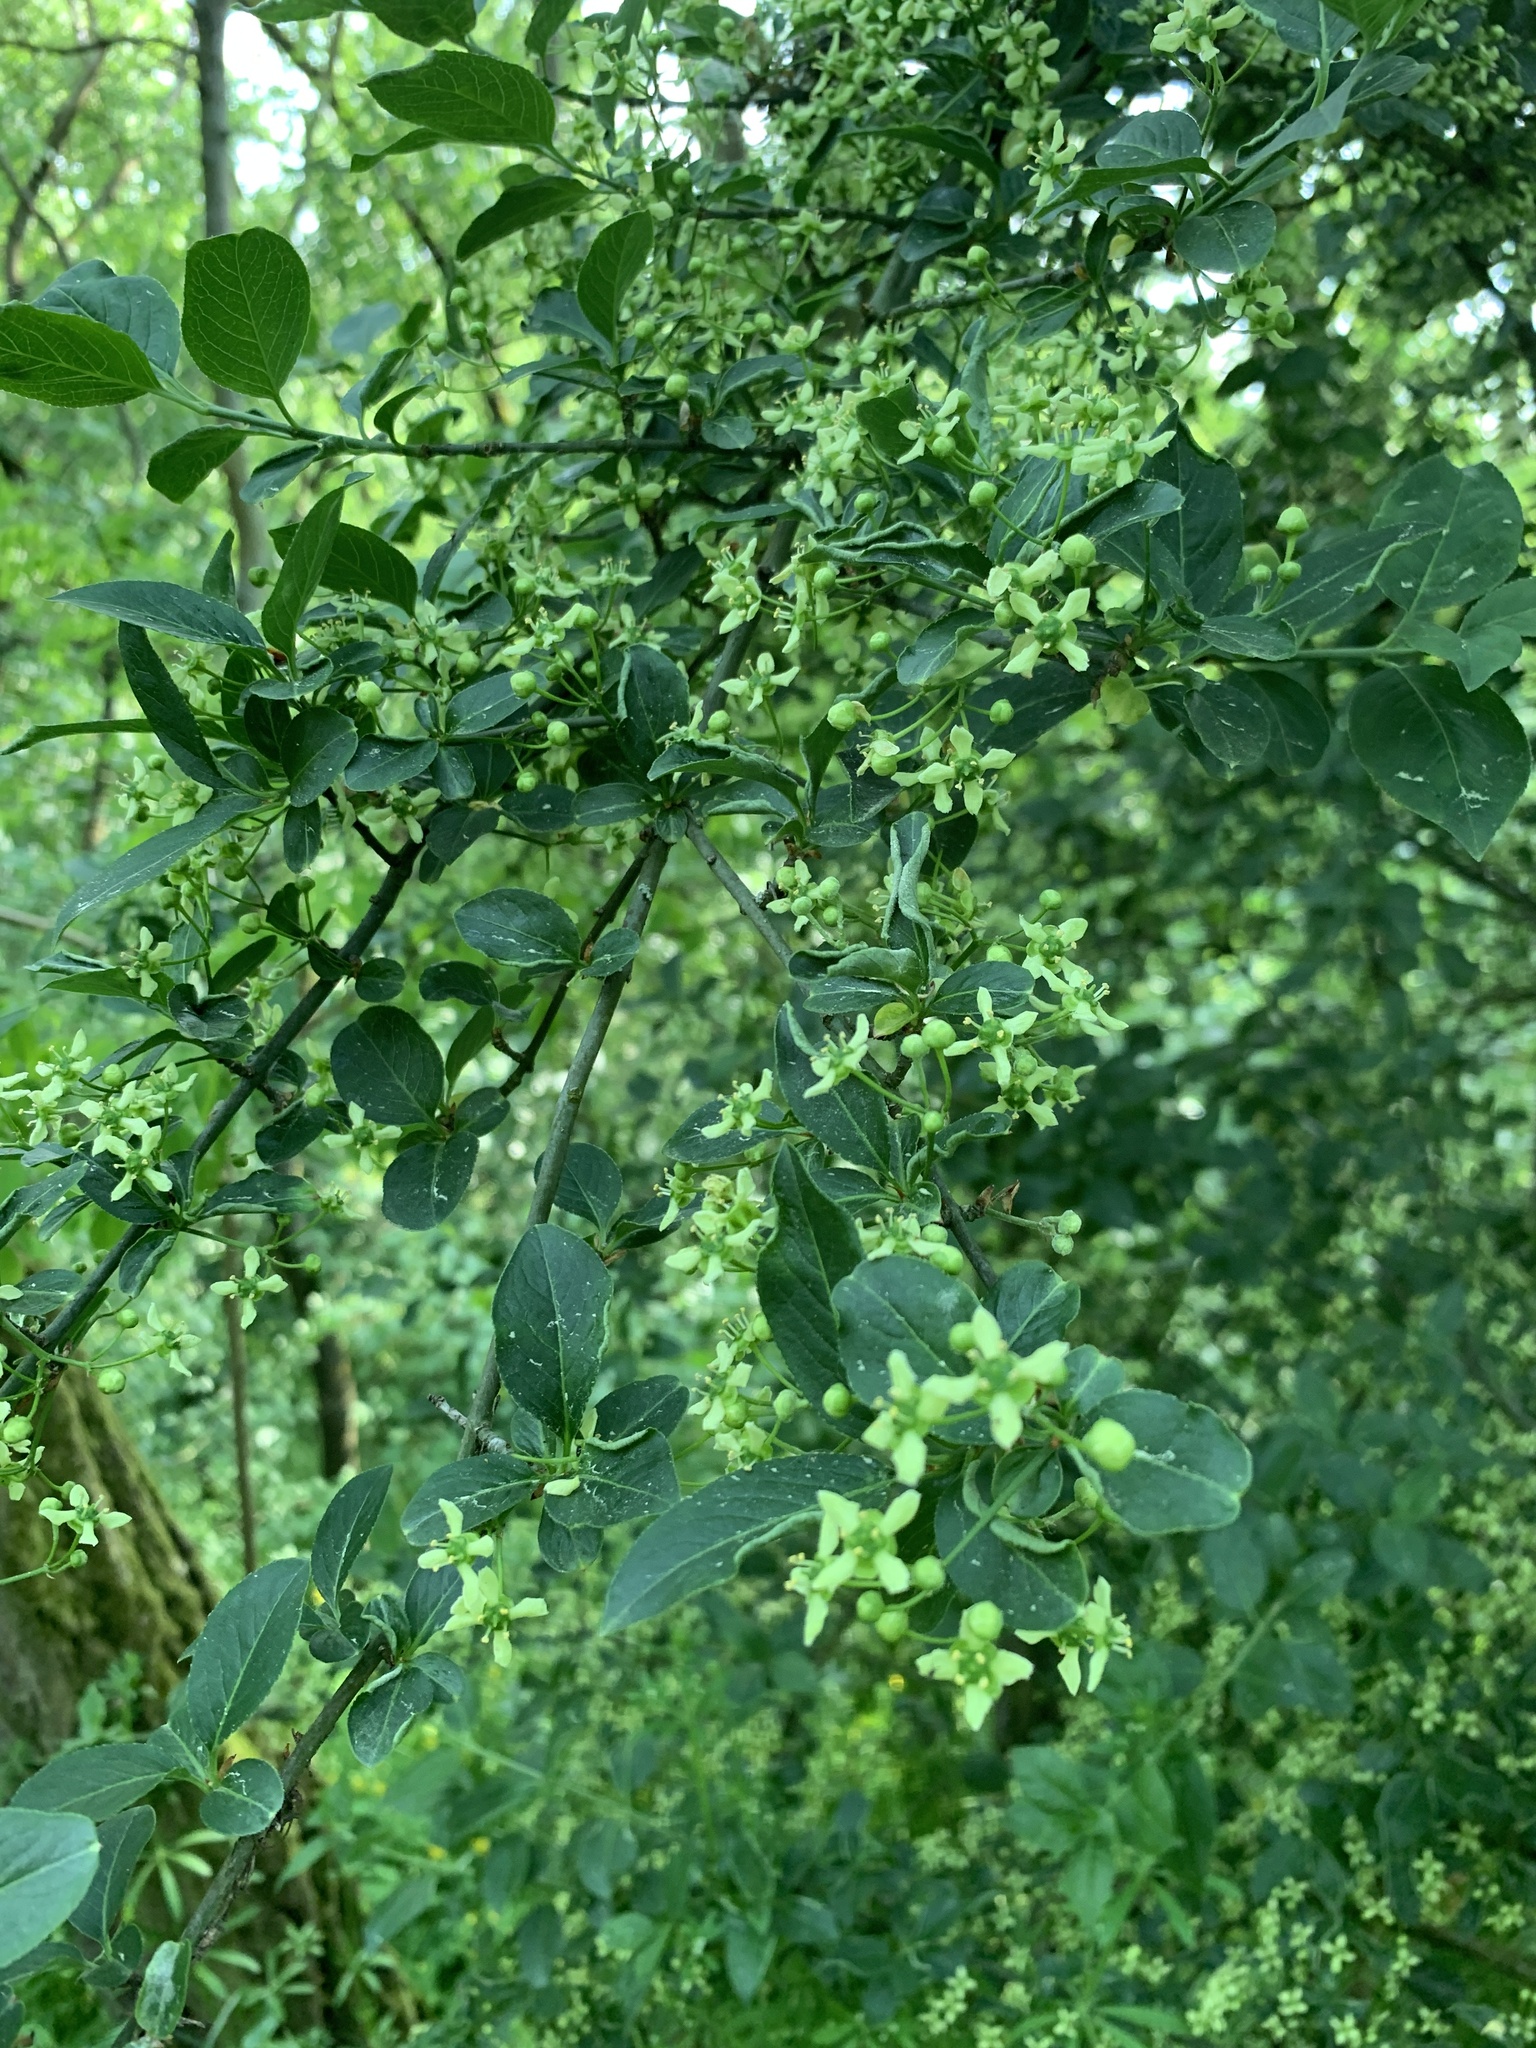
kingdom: Plantae
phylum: Tracheophyta
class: Magnoliopsida
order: Celastrales
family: Celastraceae
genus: Euonymus
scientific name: Euonymus europaeus
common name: Spindle
